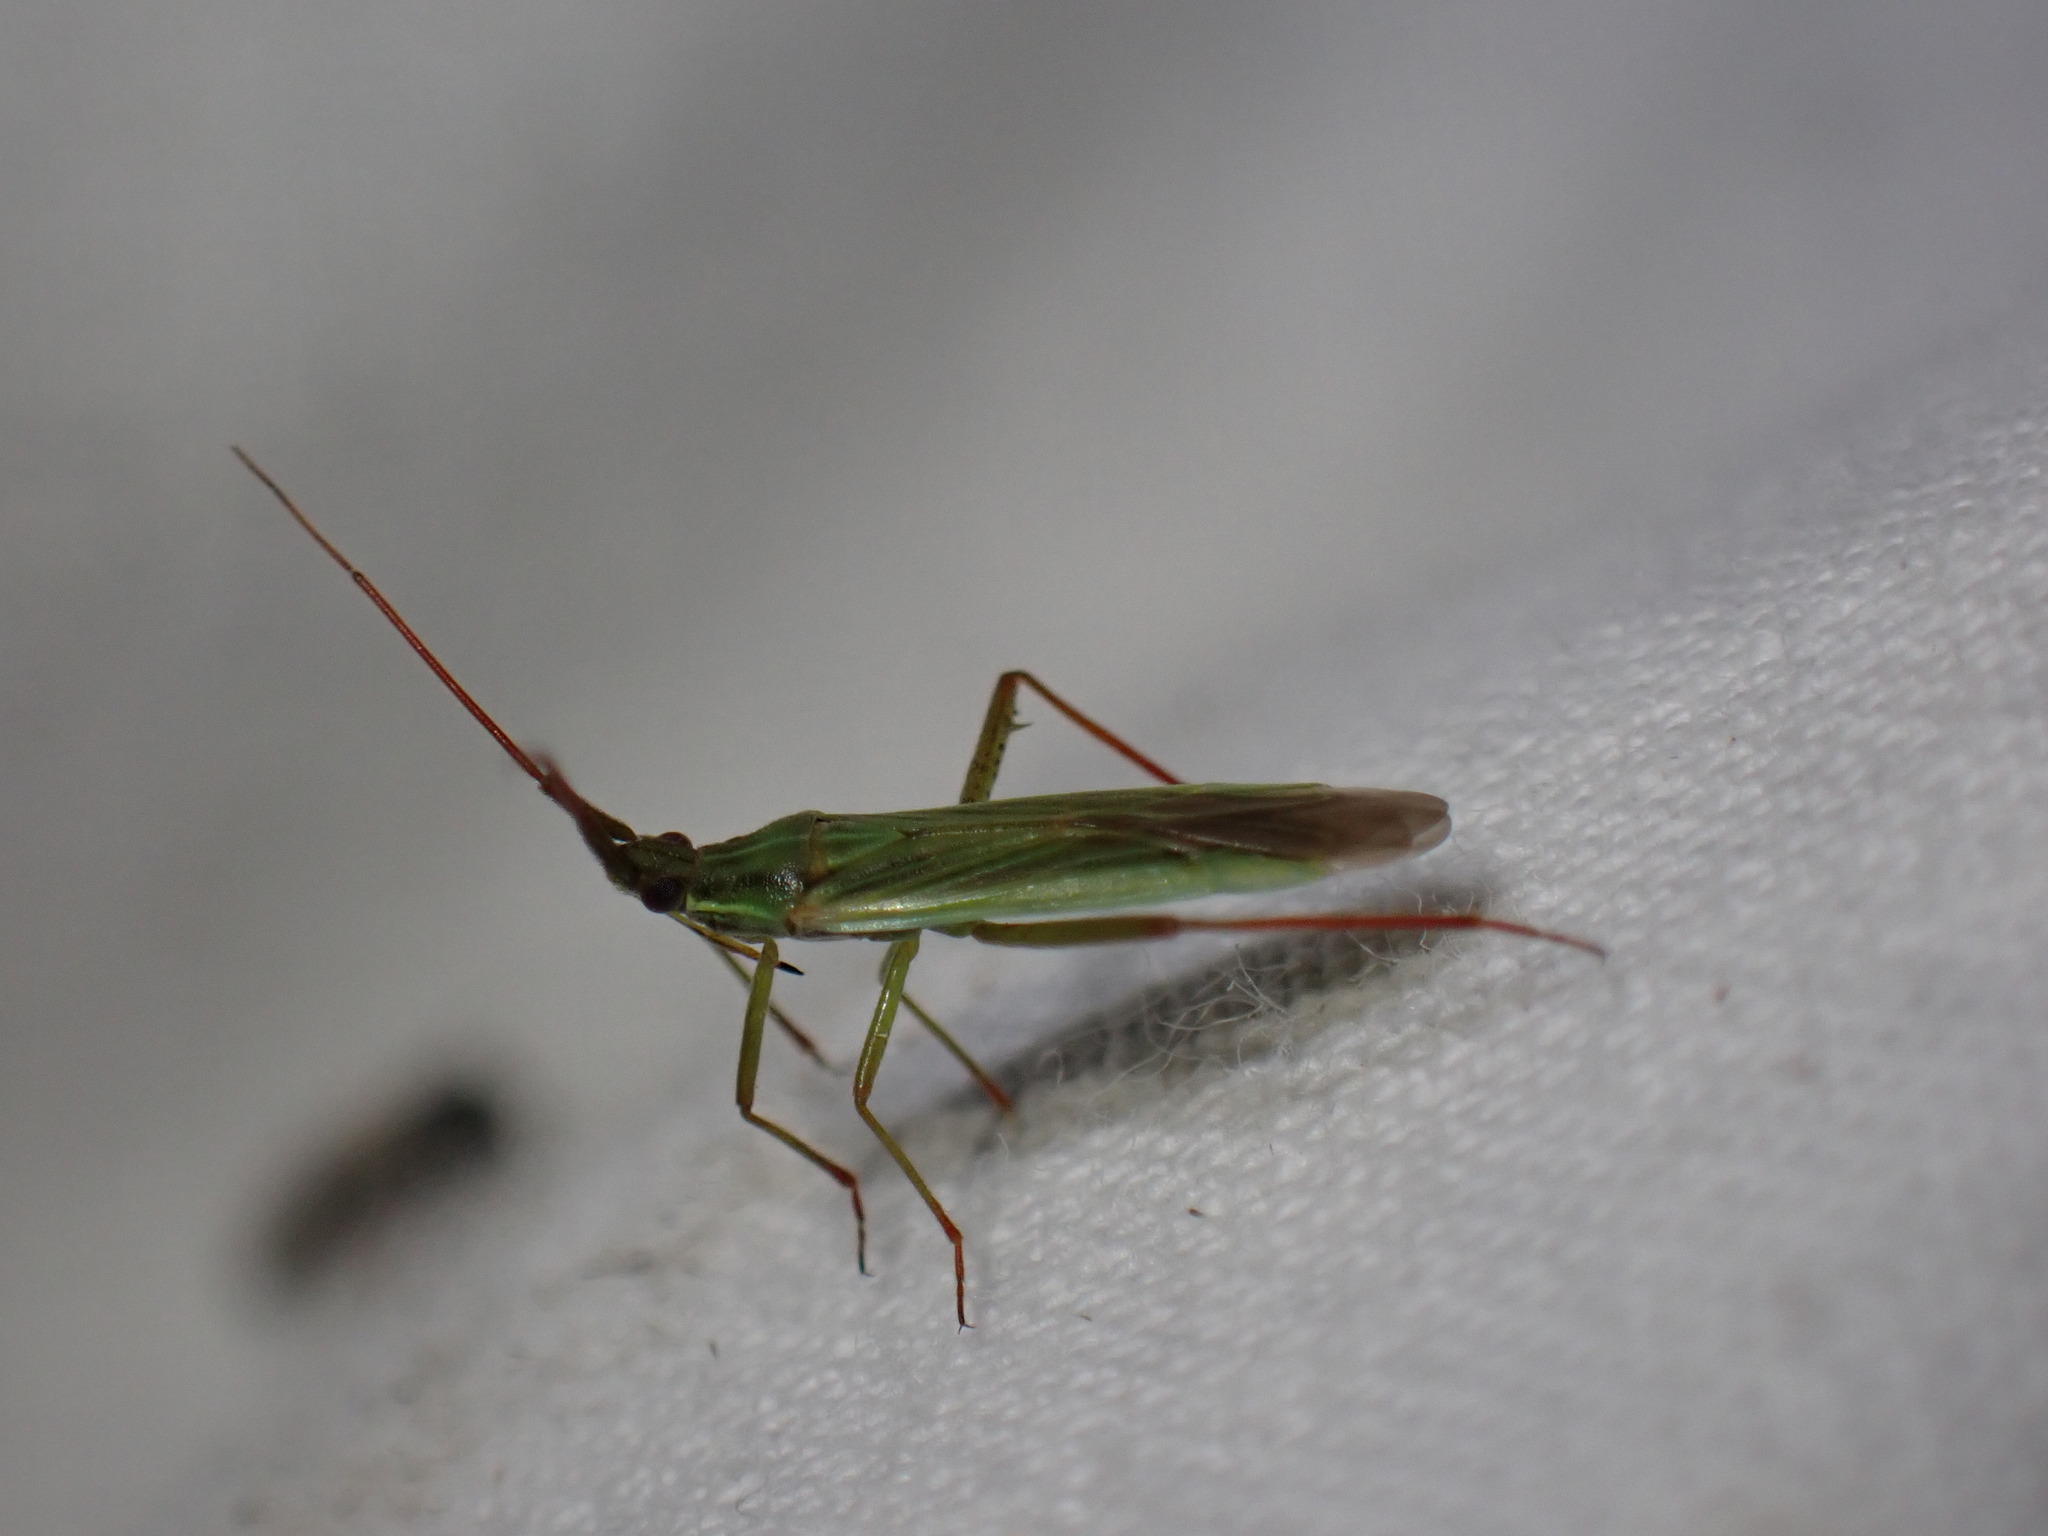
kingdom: Animalia
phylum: Arthropoda
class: Insecta
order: Hemiptera
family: Miridae
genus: Stenodema
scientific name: Stenodema calcarata
